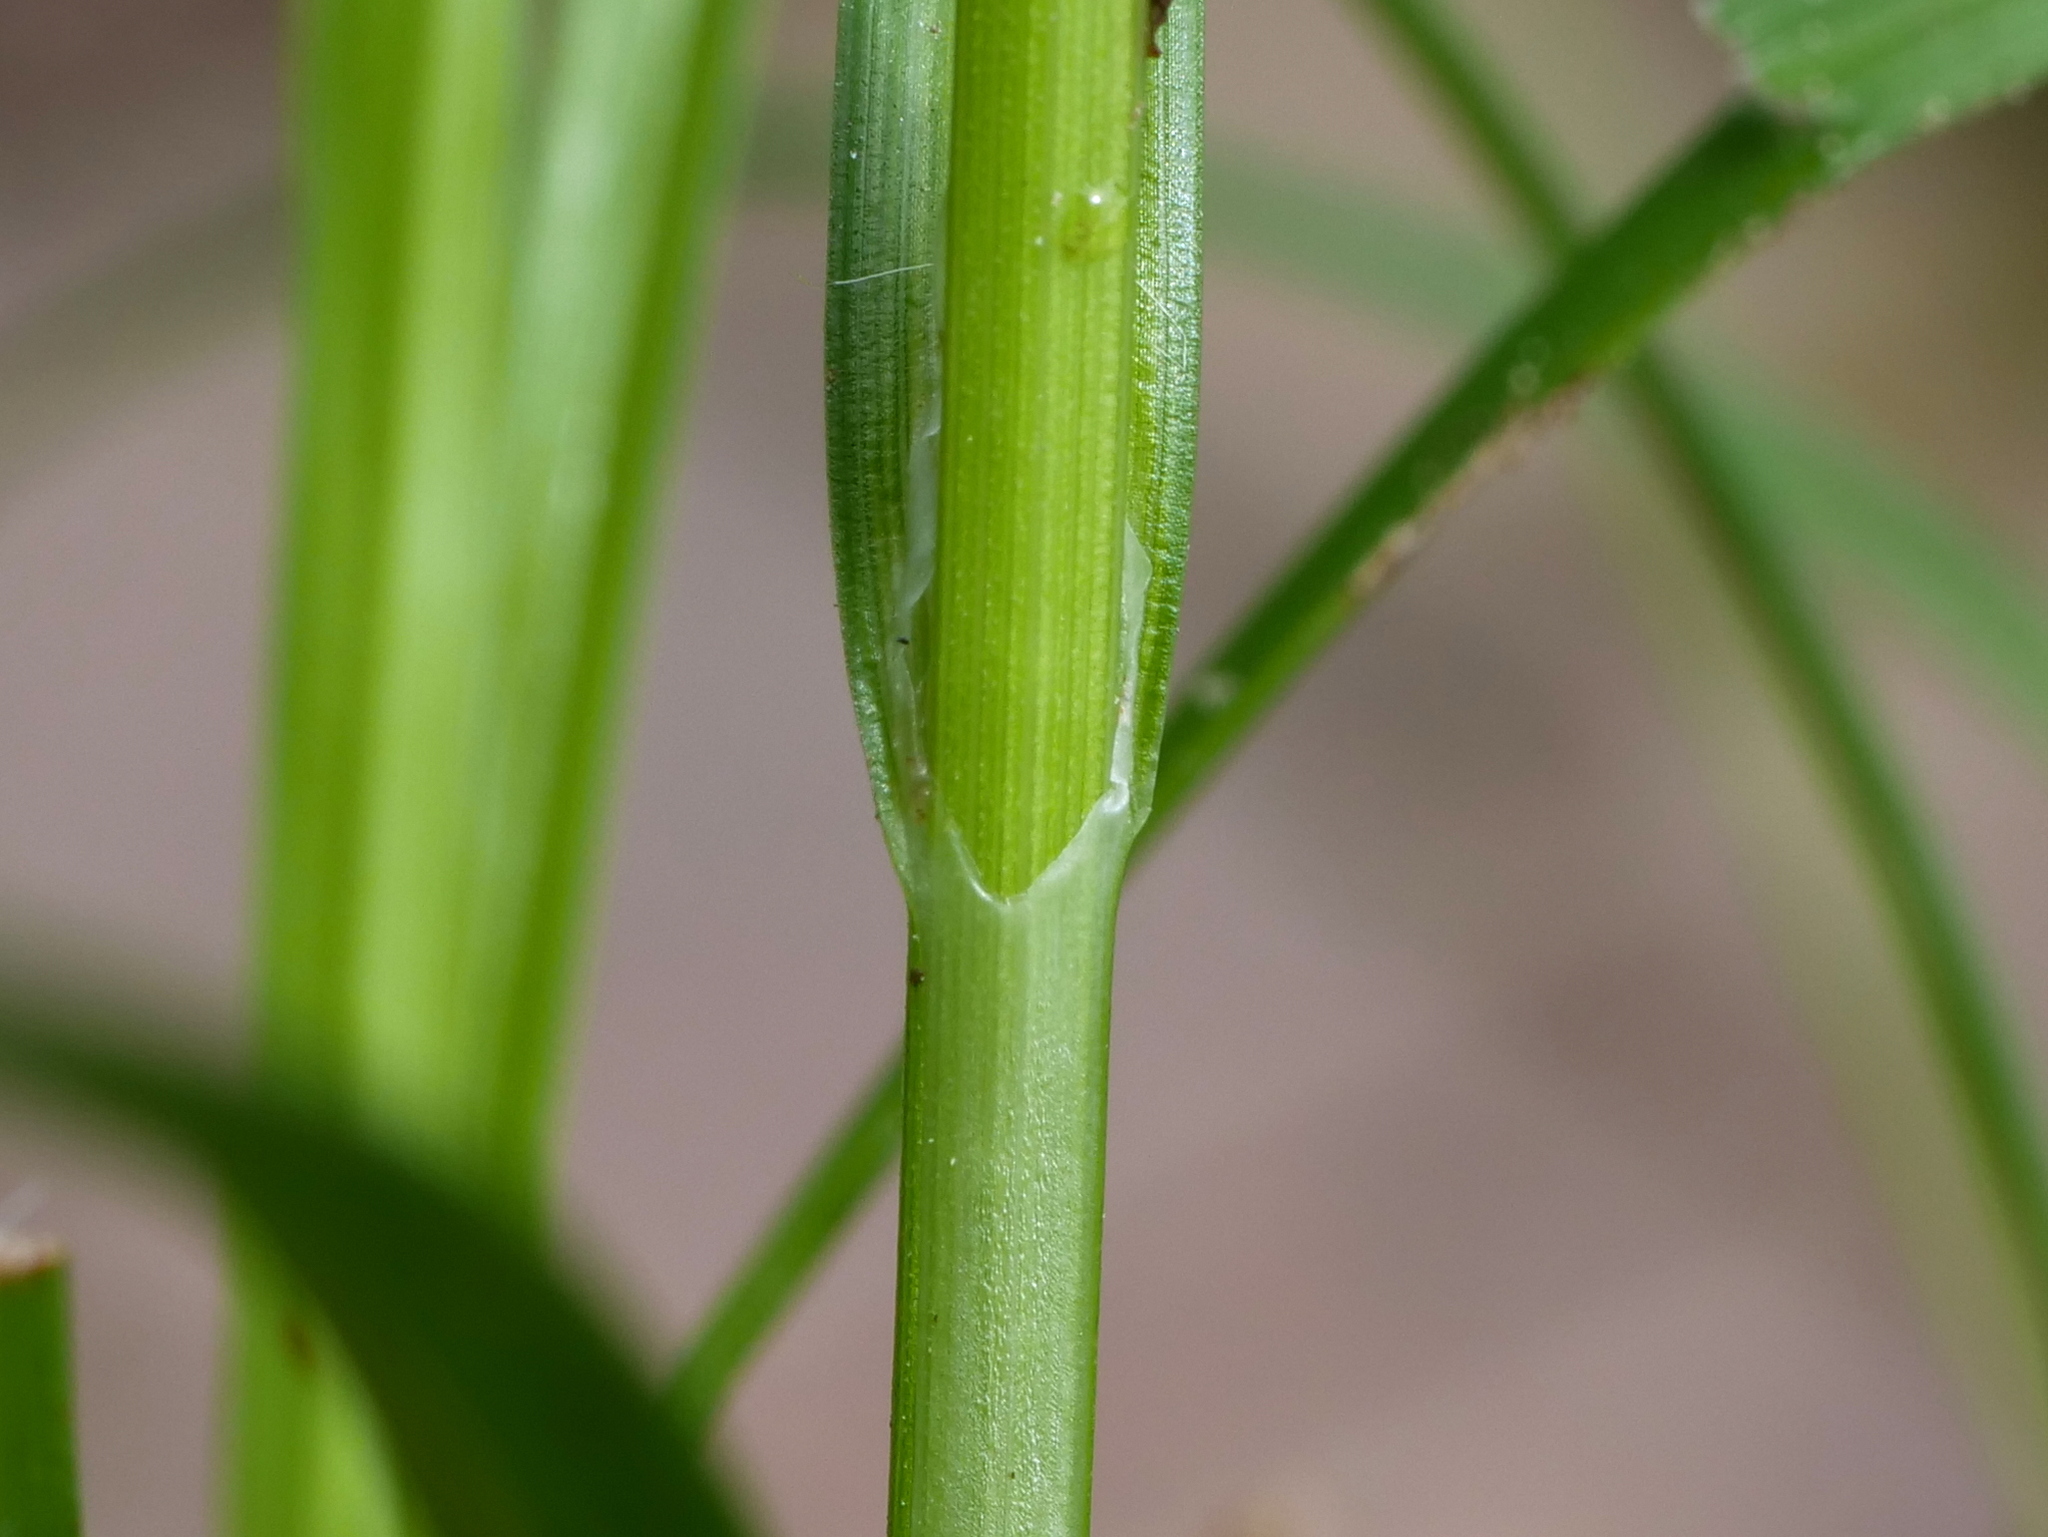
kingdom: Plantae
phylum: Tracheophyta
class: Liliopsida
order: Poales
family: Cyperaceae
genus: Carex
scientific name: Carex spicata
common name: Spiked sedge
